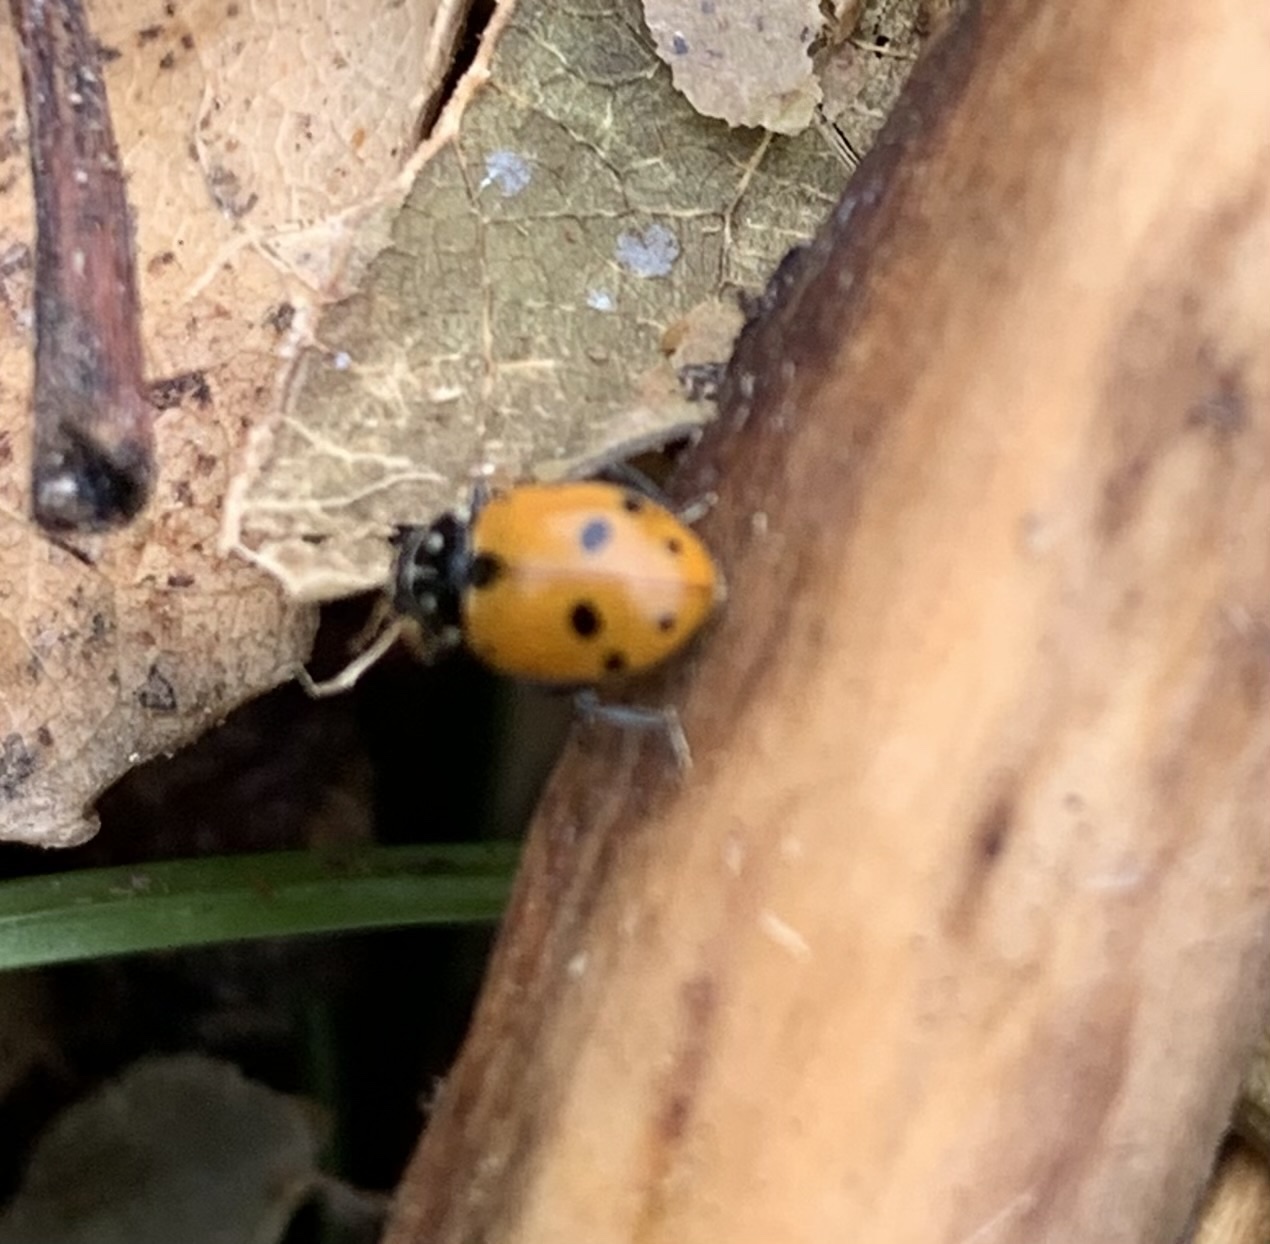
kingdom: Animalia
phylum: Arthropoda
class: Insecta
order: Coleoptera
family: Coccinellidae
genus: Hippodamia
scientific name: Hippodamia variegata
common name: Ladybird beetle
